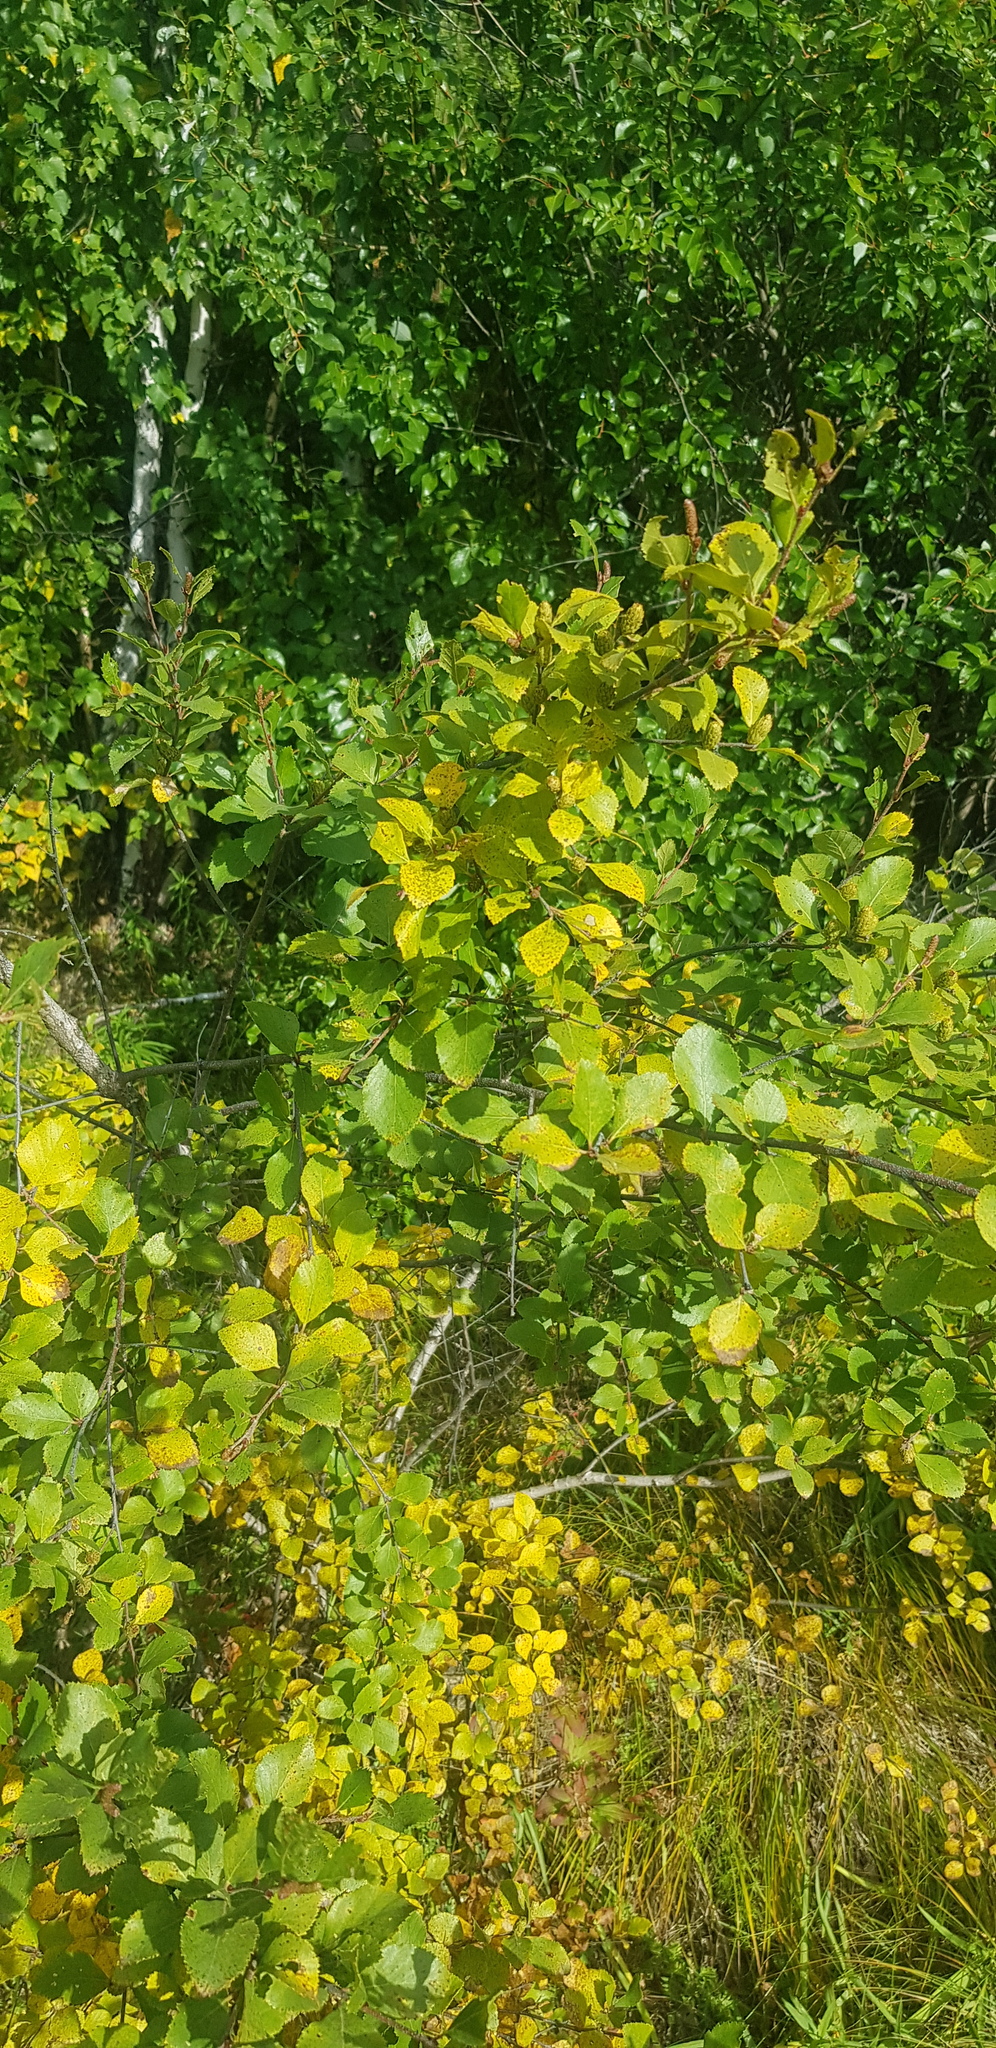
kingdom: Plantae
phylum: Tracheophyta
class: Magnoliopsida
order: Rosales
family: Ulmaceae
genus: Ulmus
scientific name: Ulmus pumila
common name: Siberian elm
